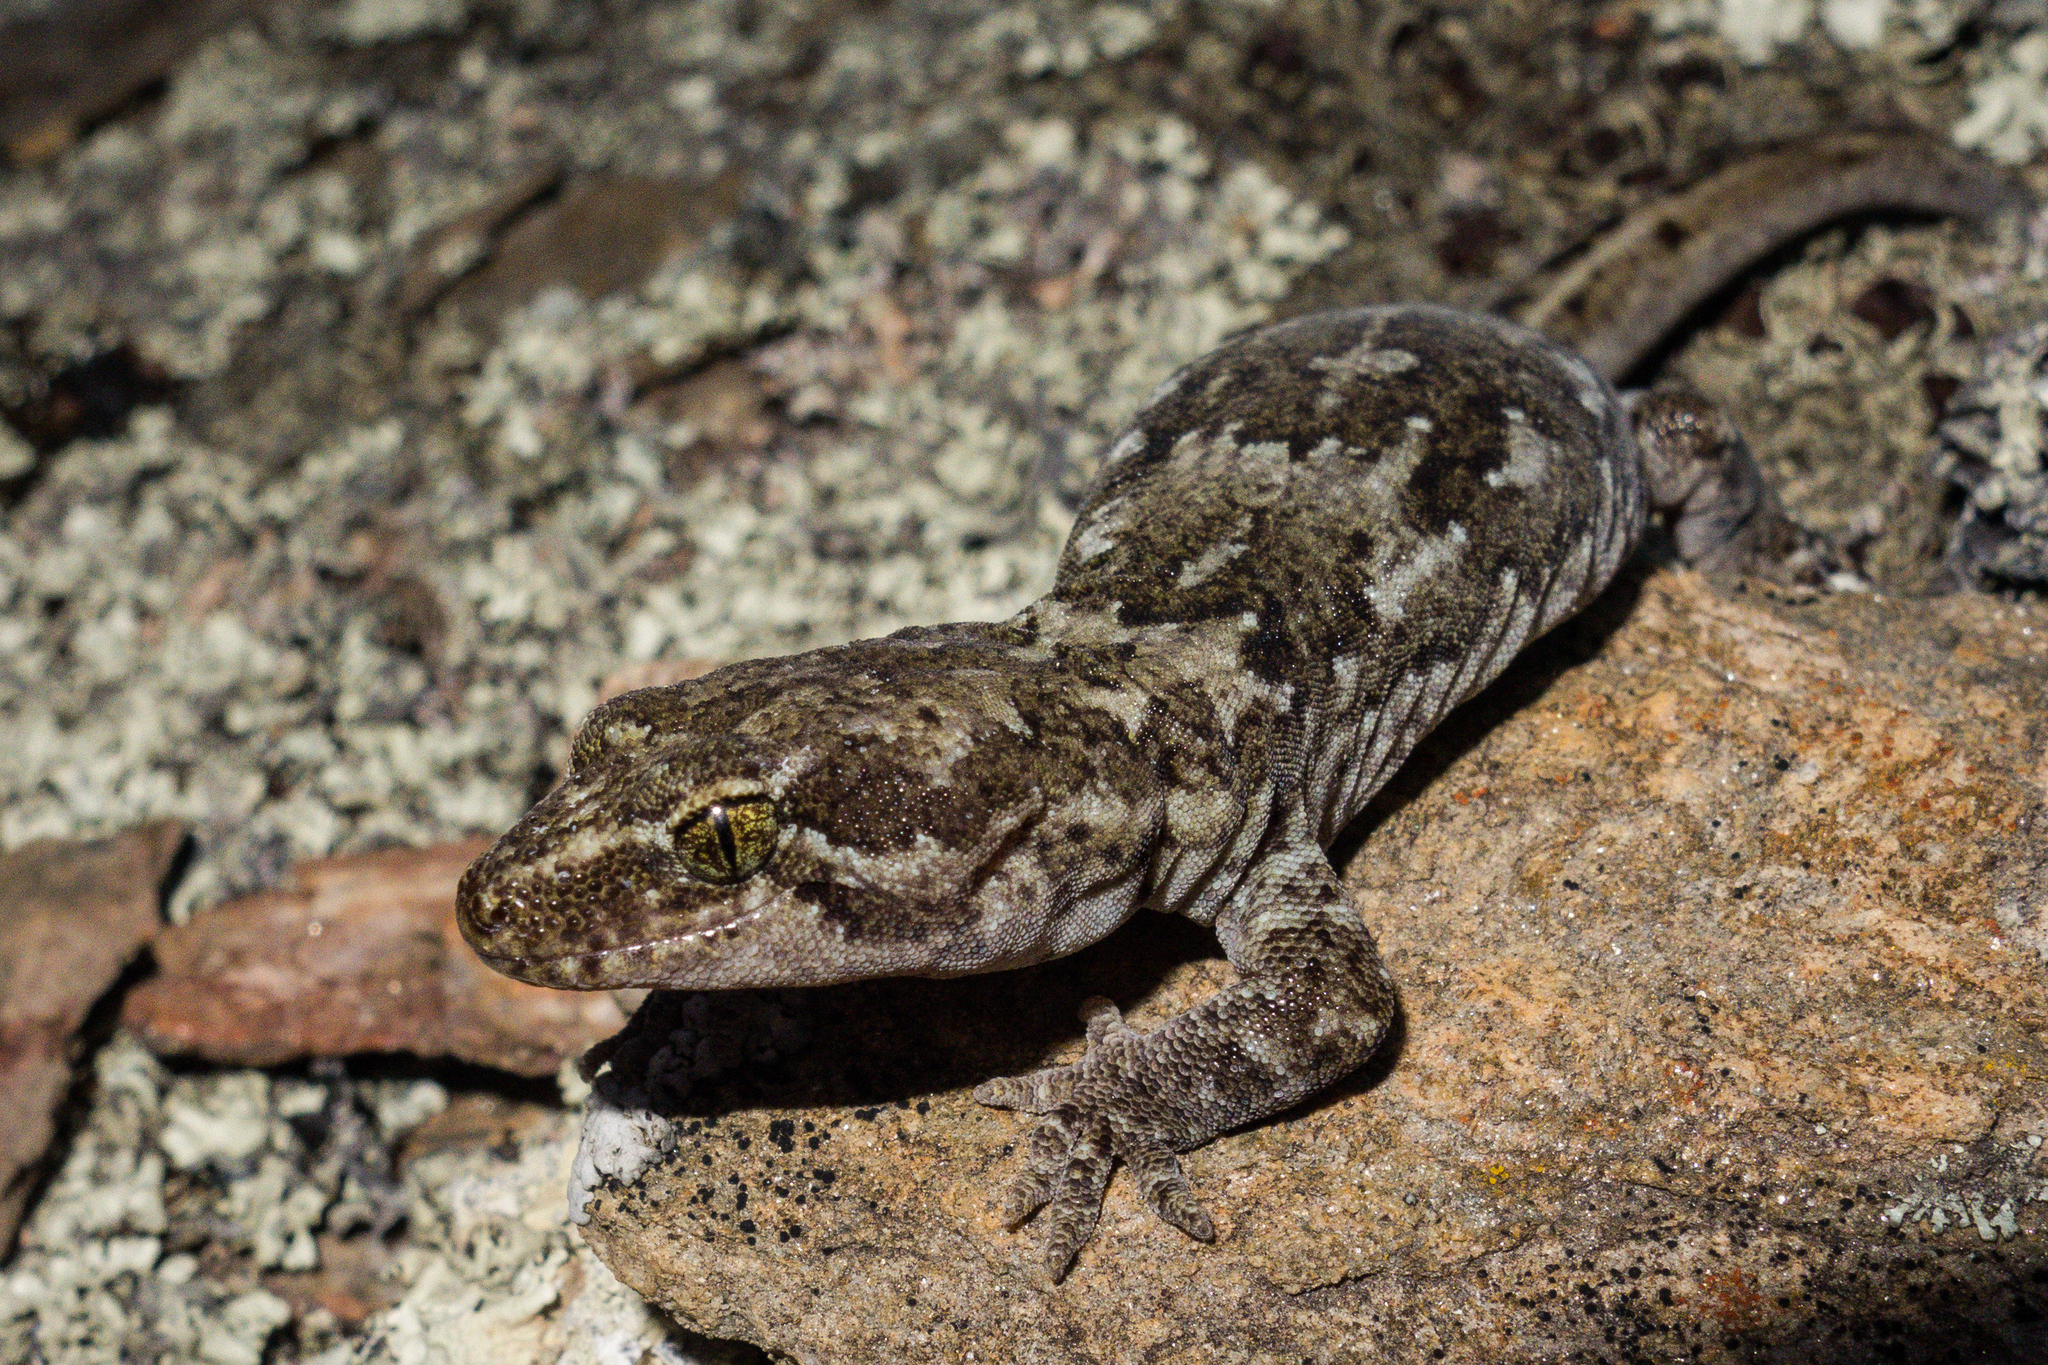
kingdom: Animalia
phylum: Chordata
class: Squamata
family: Diplodactylidae
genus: Woodworthia
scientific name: Woodworthia
